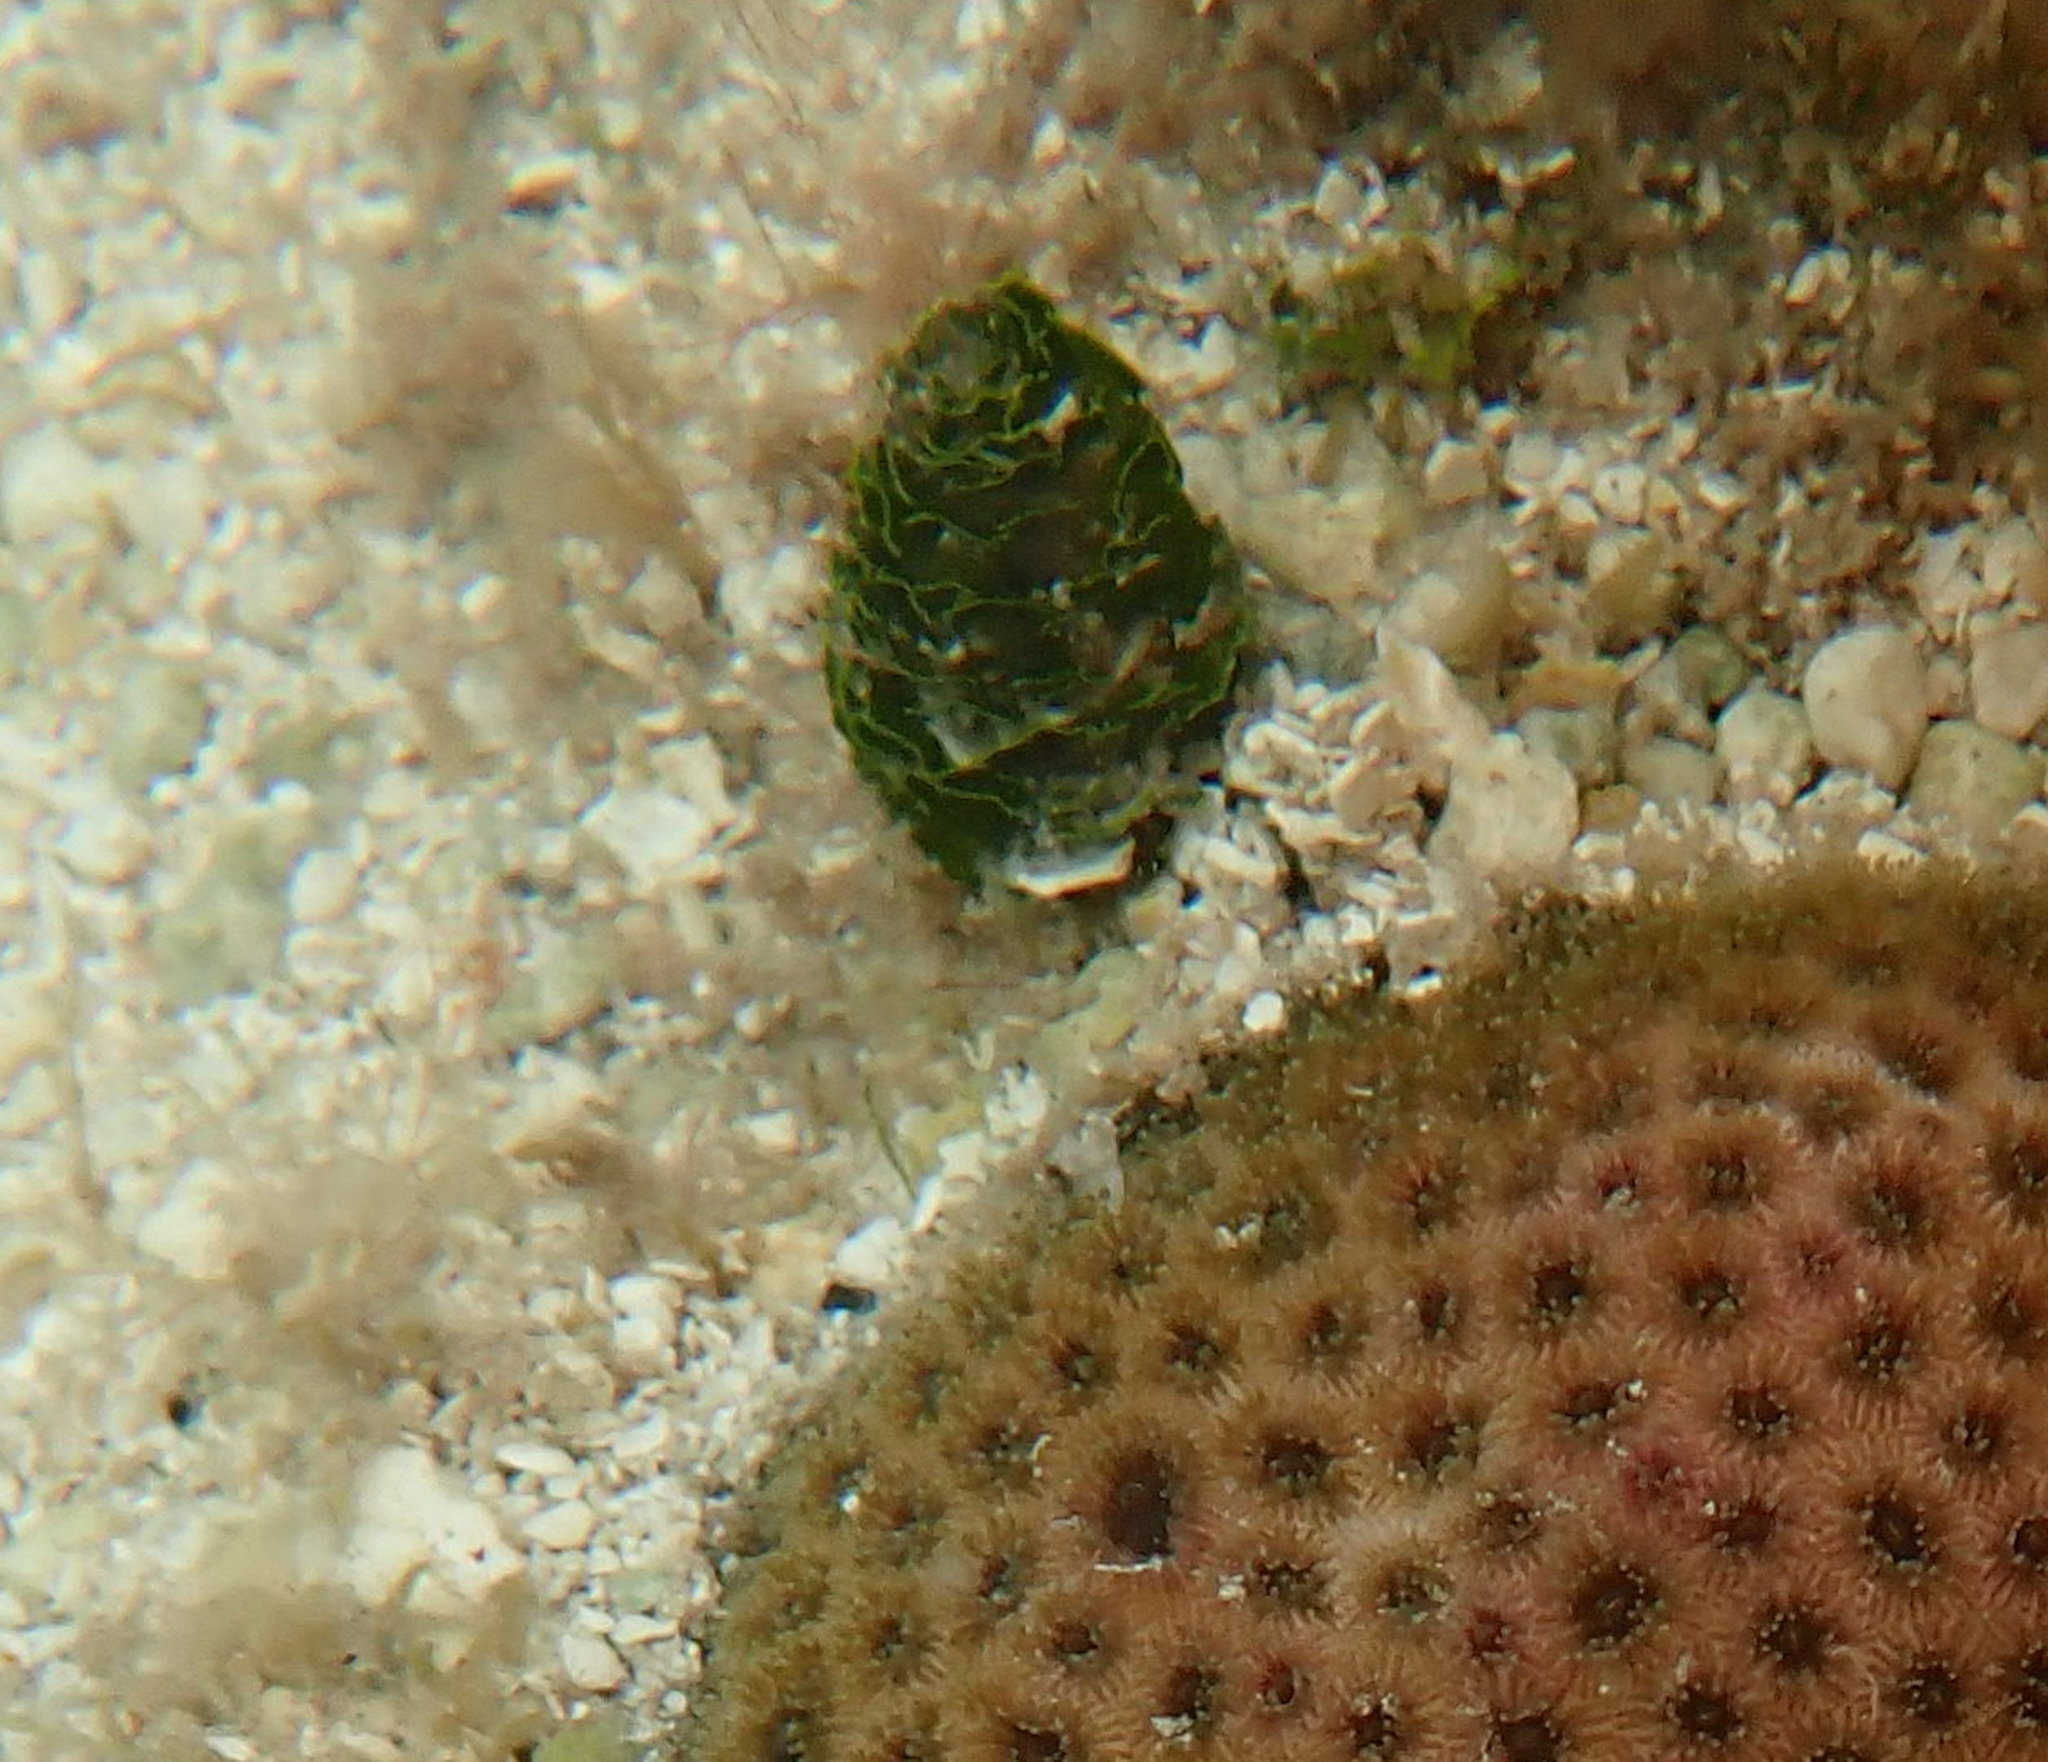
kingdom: Plantae
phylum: Chlorophyta
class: Ulvophyceae
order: Bryopsidales
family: Udoteaceae
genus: Rhipocephalus
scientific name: Rhipocephalus phoenix
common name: Pinecone algae
